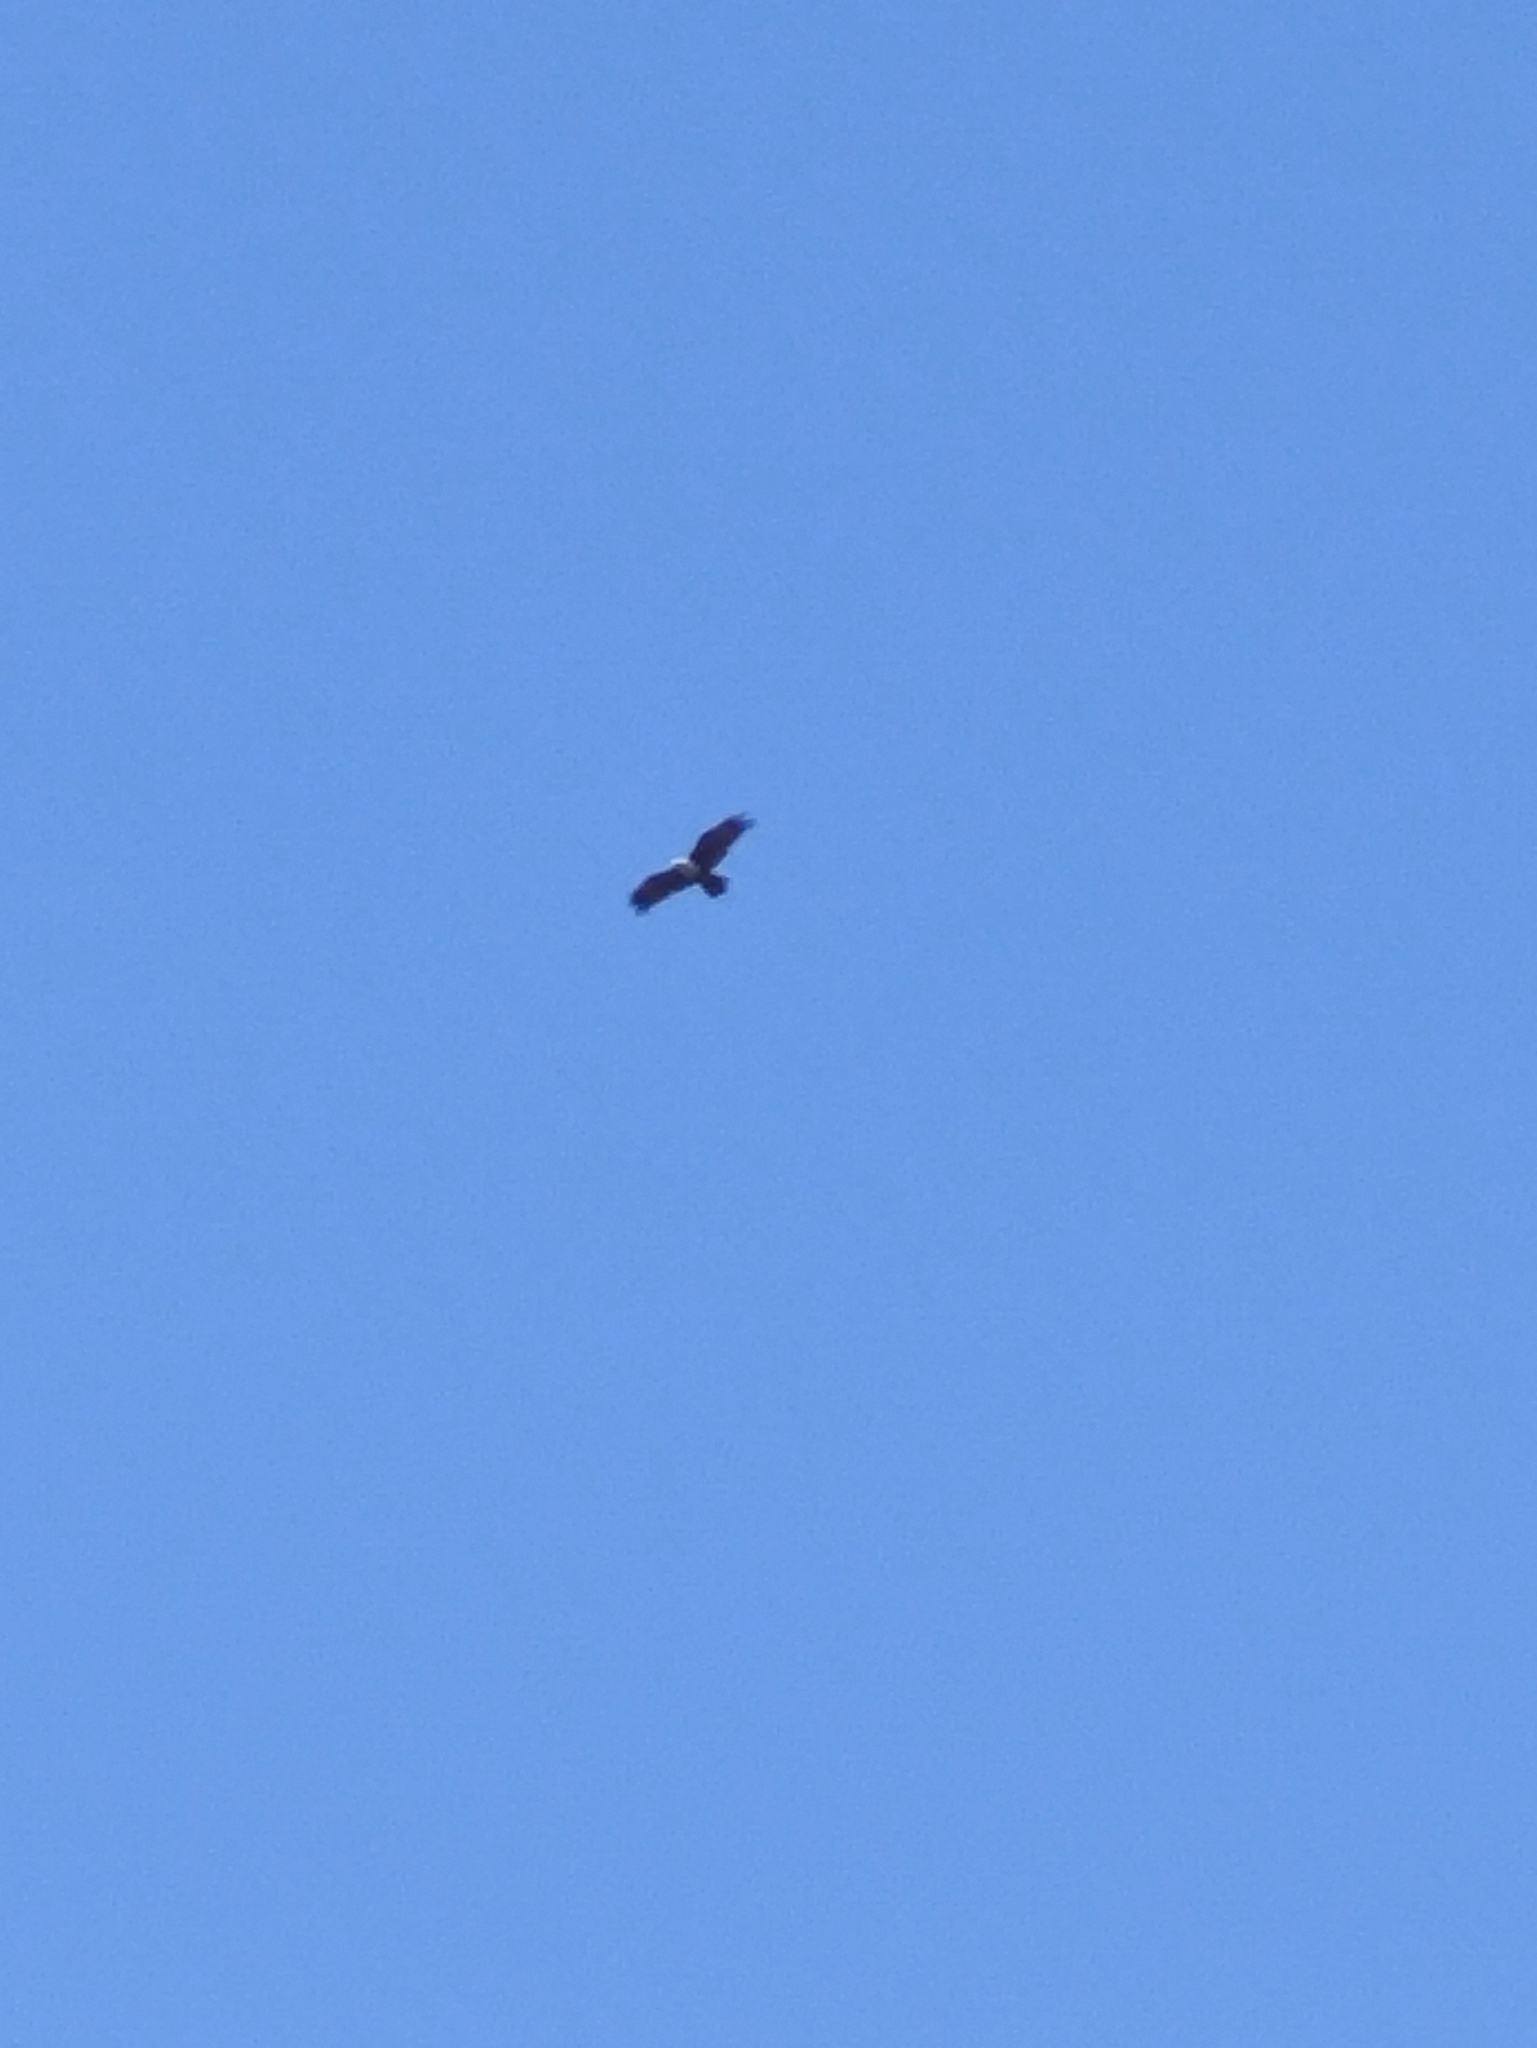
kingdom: Animalia
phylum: Chordata
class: Aves
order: Accipitriformes
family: Accipitridae
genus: Haliastur
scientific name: Haliastur indus
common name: Brahminy kite
